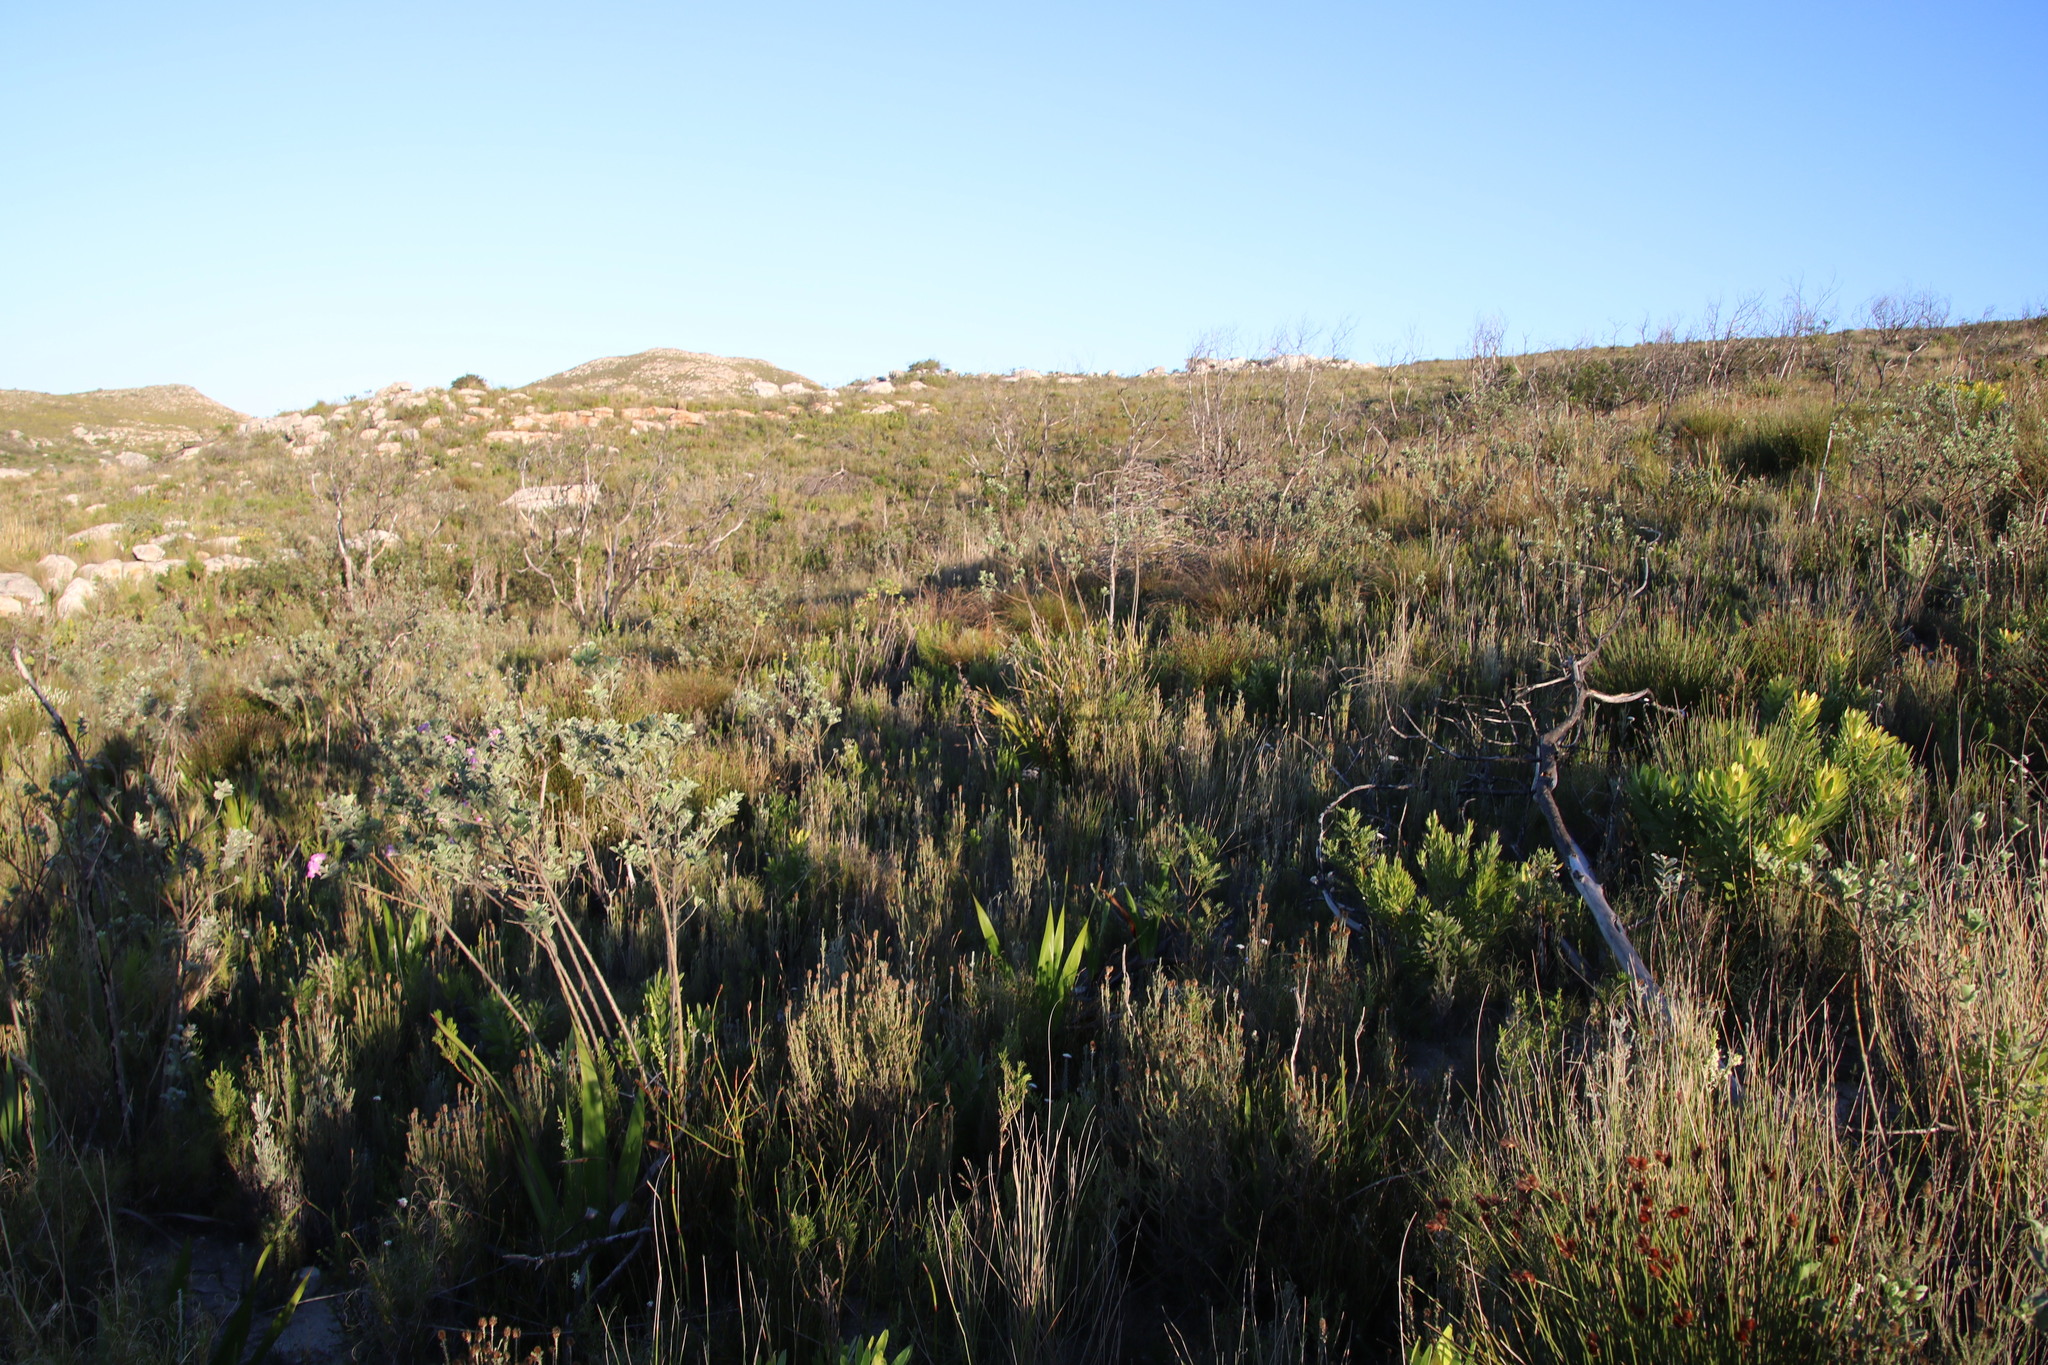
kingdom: Plantae
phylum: Tracheophyta
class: Magnoliopsida
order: Fabales
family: Fabaceae
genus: Podalyria
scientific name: Podalyria calyptrata
